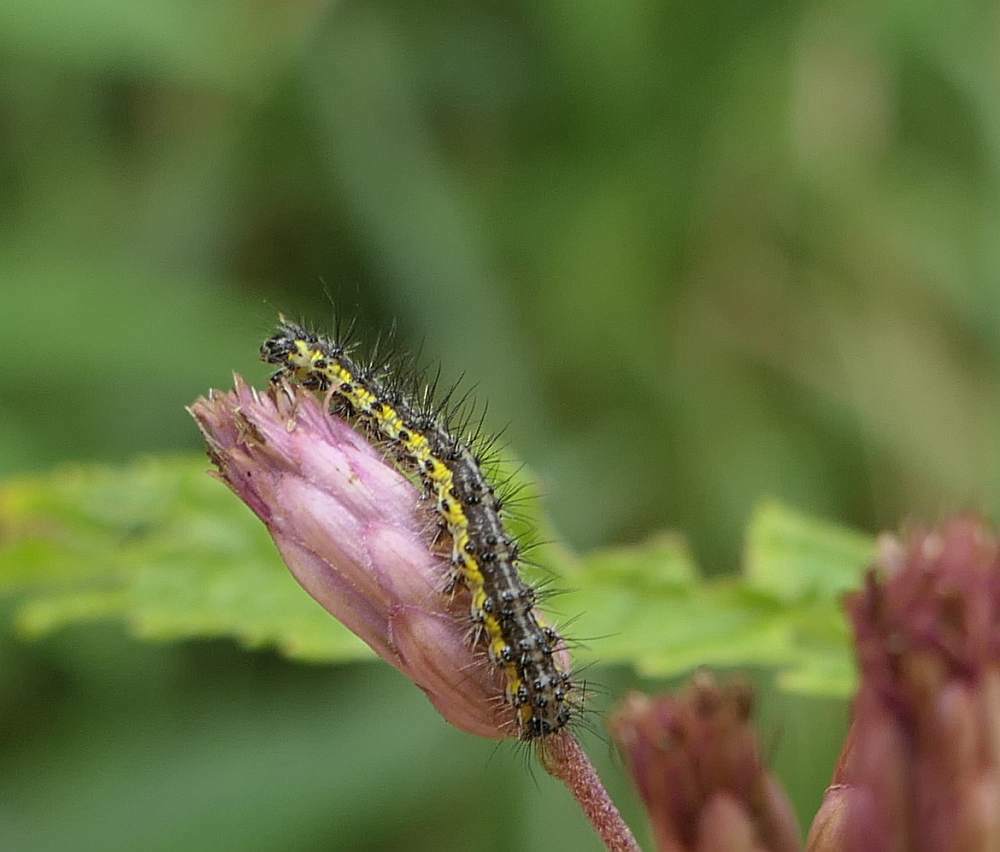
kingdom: Animalia
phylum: Arthropoda
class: Insecta
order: Lepidoptera
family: Erebidae
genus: Haploa
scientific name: Haploa contigua
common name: Neighbor moth
